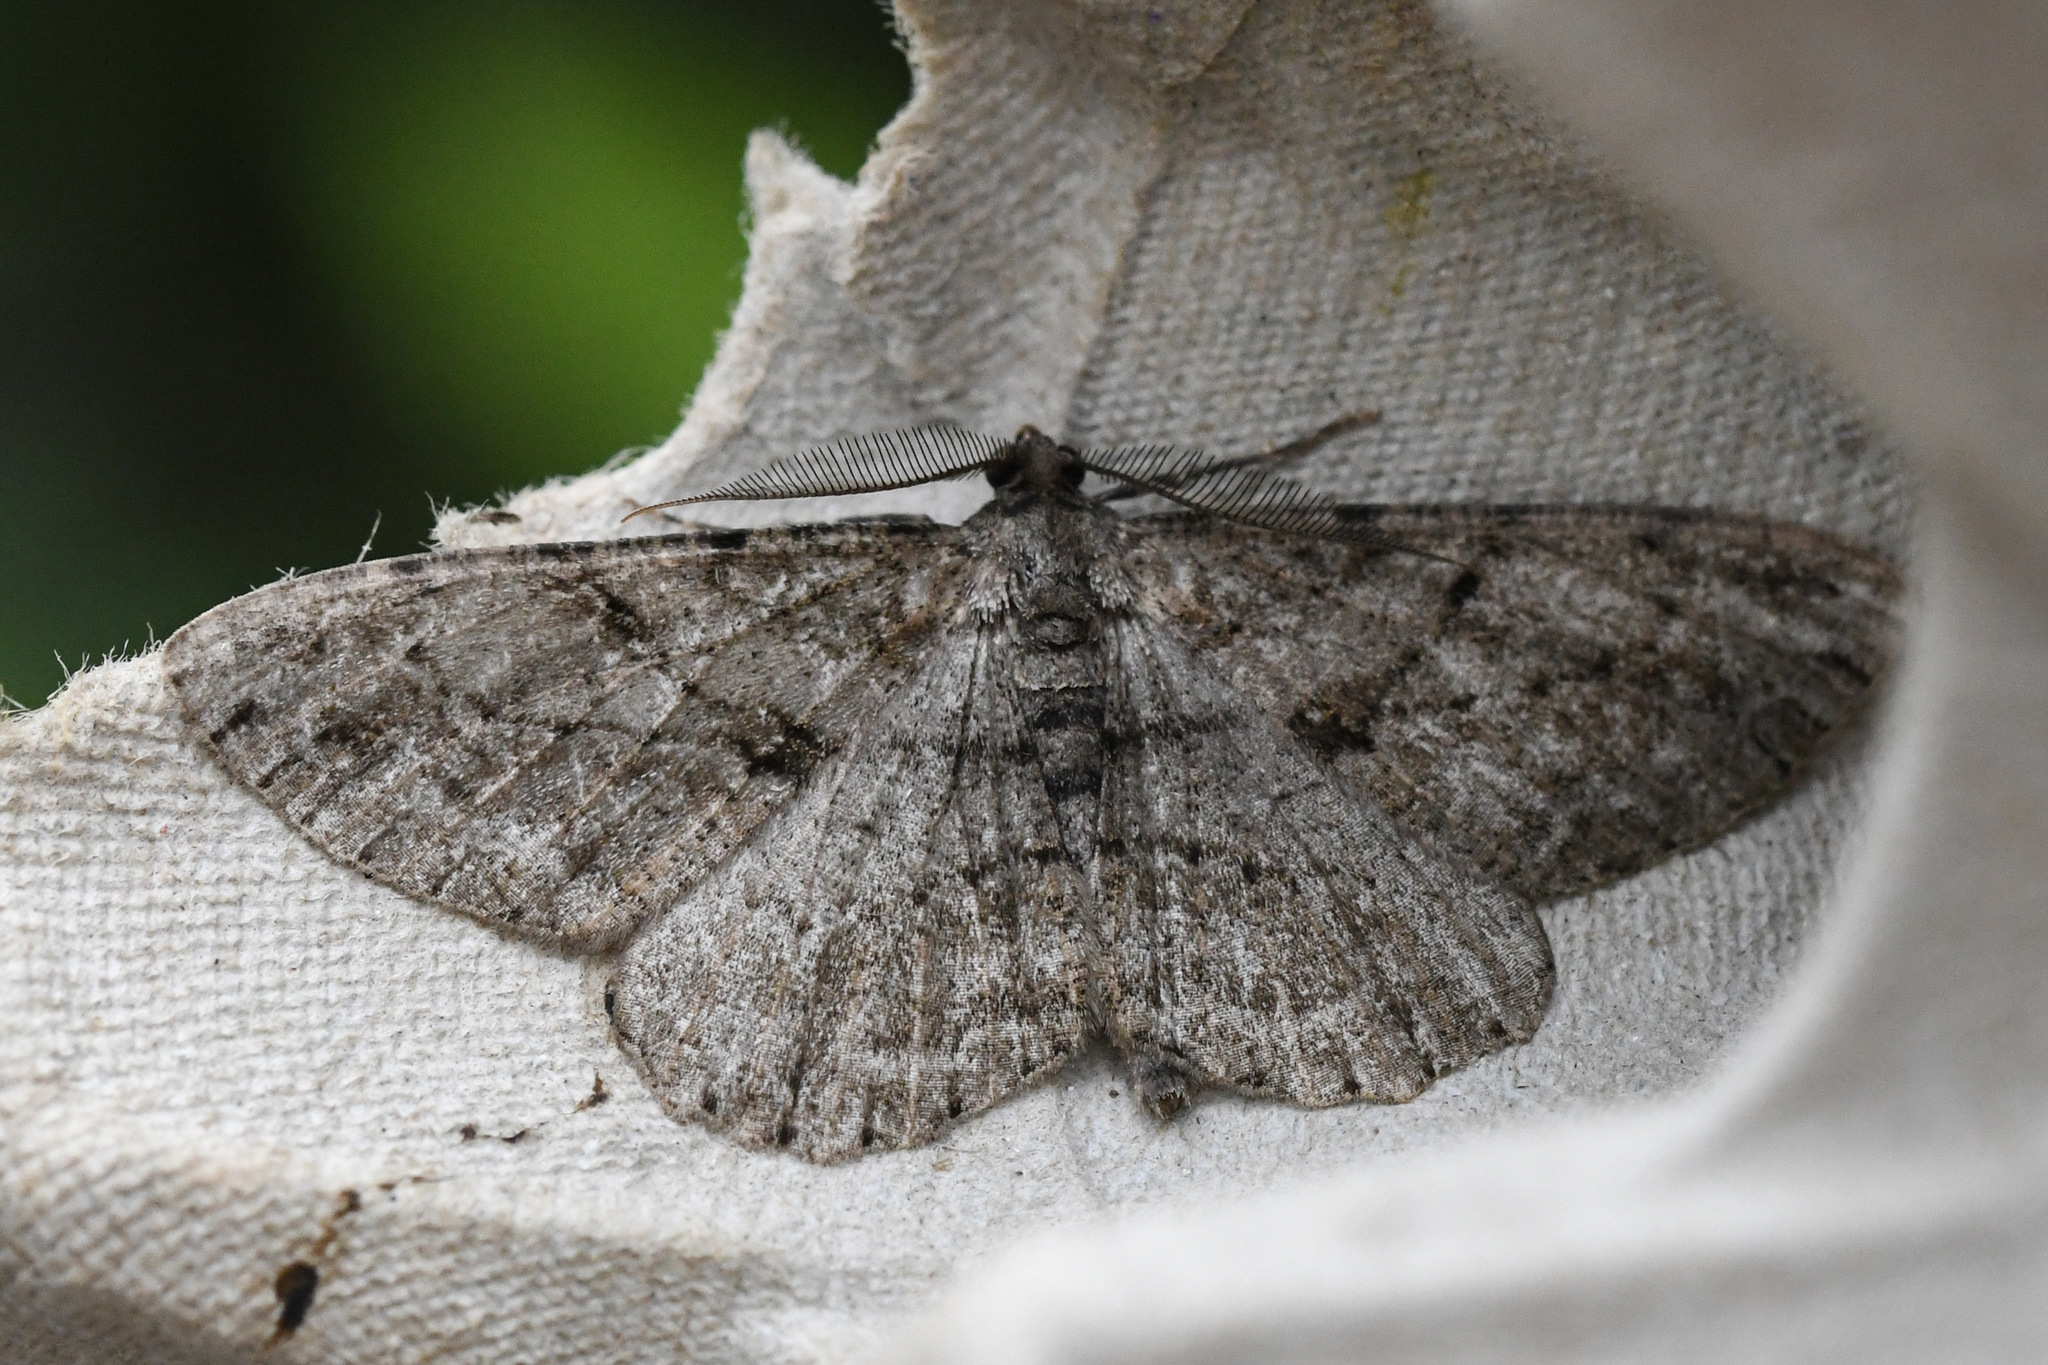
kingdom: Animalia
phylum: Arthropoda
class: Insecta
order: Lepidoptera
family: Geometridae
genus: Peribatodes
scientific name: Peribatodes rhomboidaria
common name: Willow beauty
